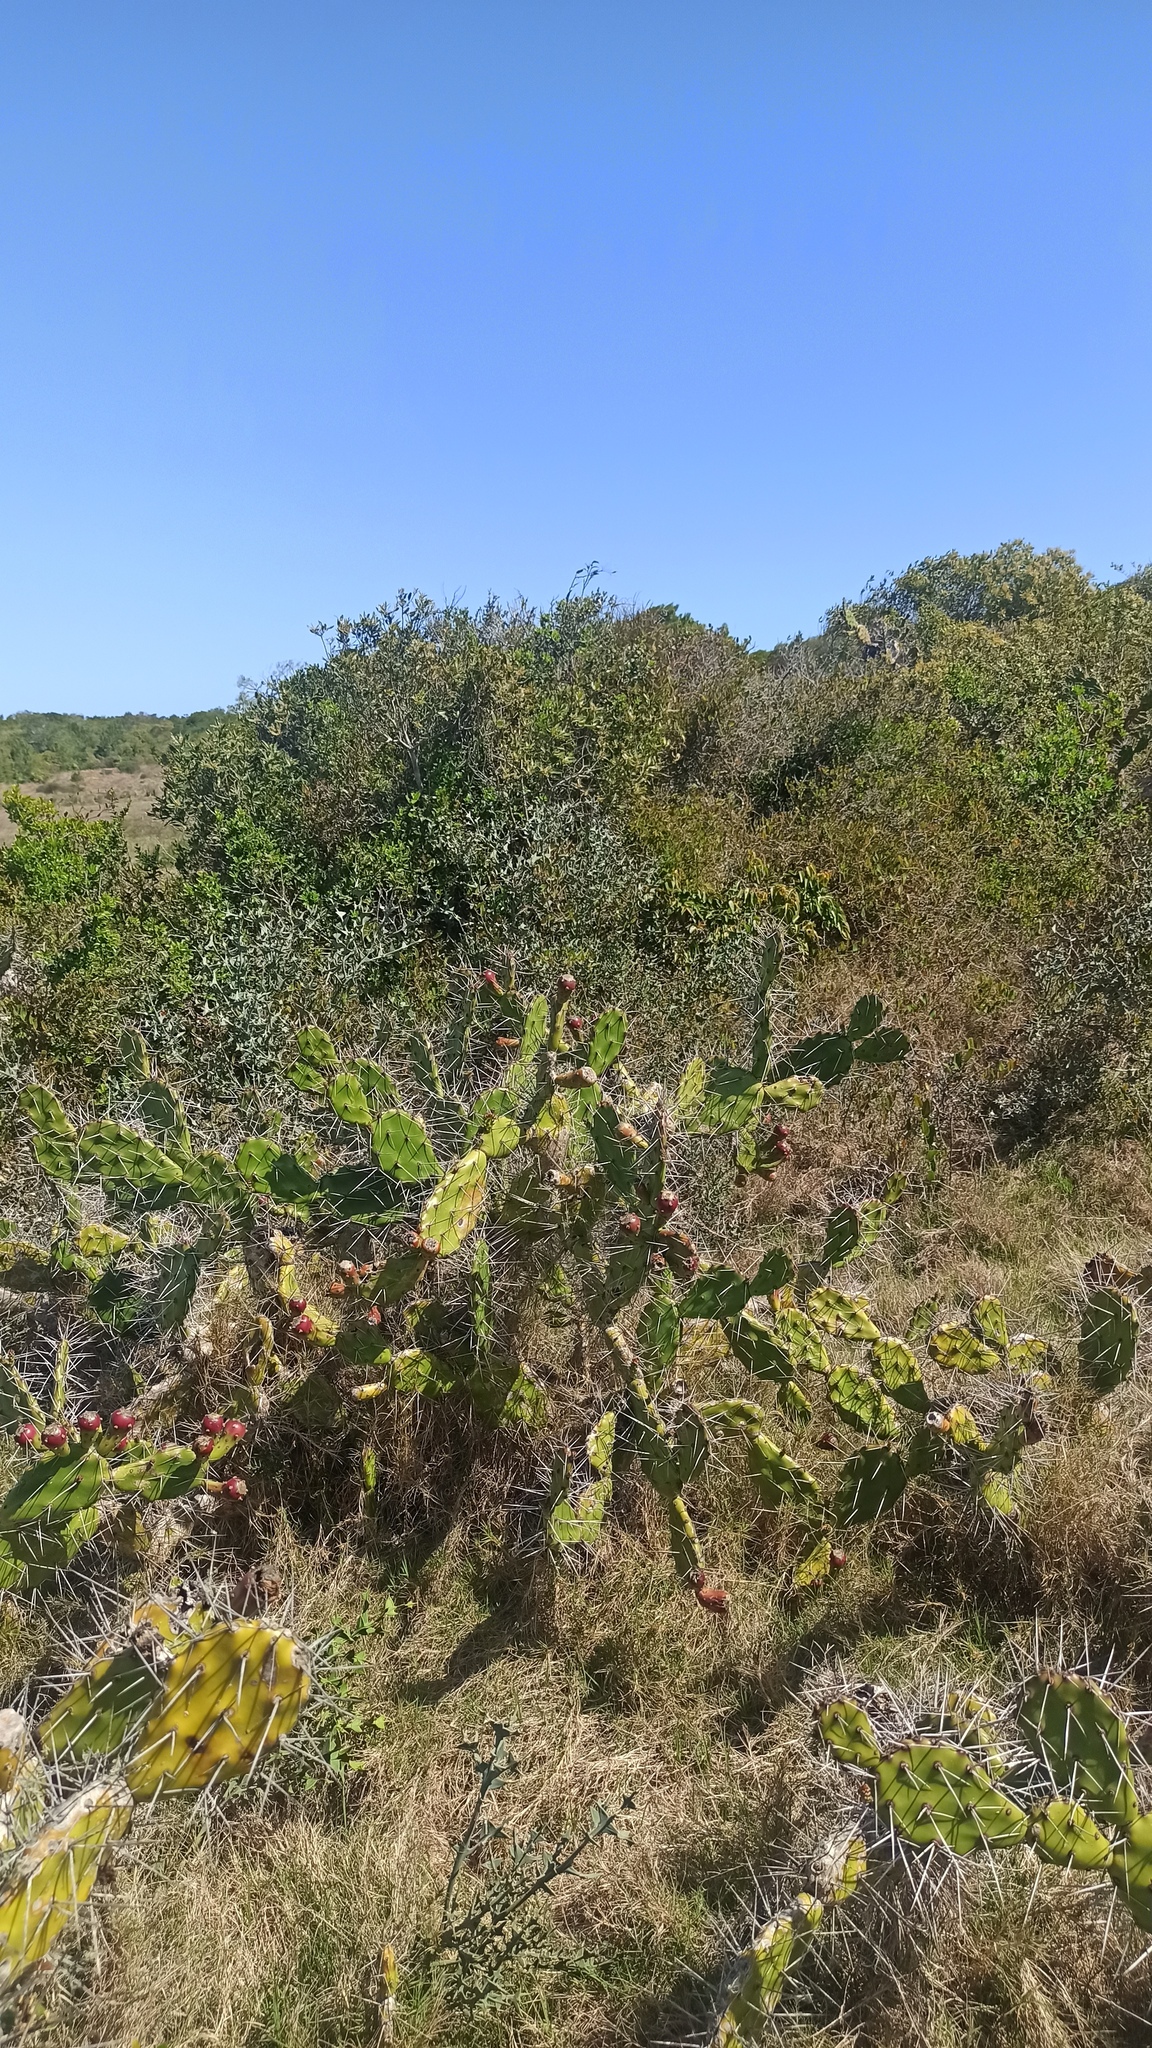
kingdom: Plantae
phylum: Tracheophyta
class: Magnoliopsida
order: Caryophyllales
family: Cactaceae
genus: Opuntia
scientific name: Opuntia arechavaletae
